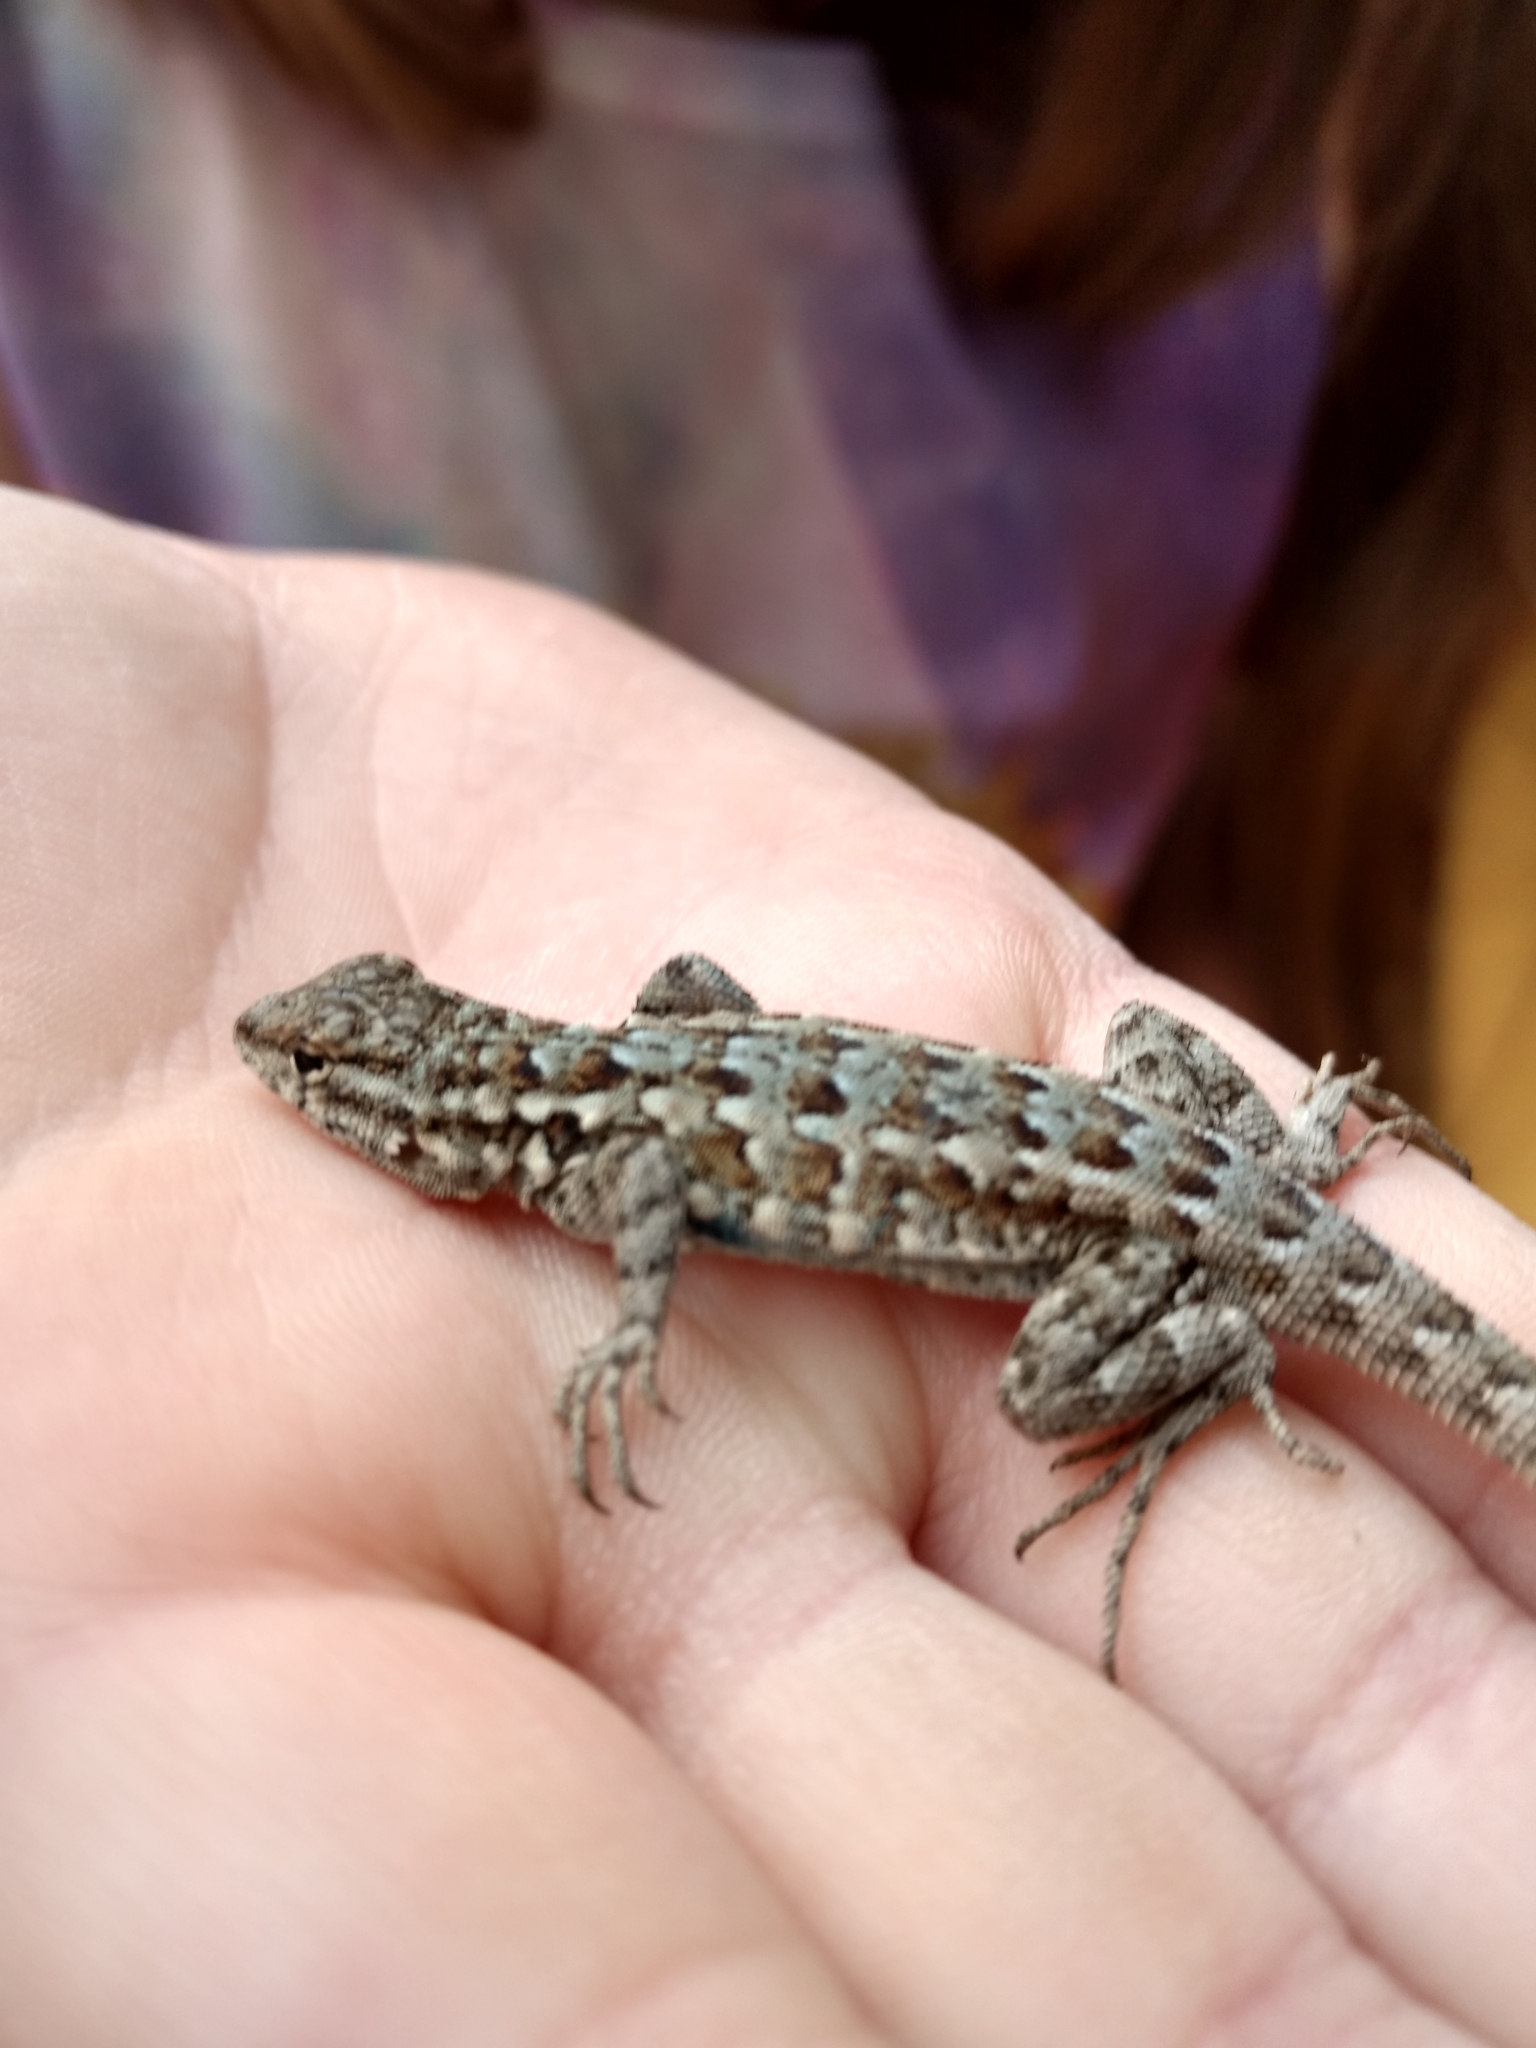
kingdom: Animalia
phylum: Chordata
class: Squamata
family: Phrynosomatidae
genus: Uta
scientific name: Uta stansburiana
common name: Side-blotched lizard
